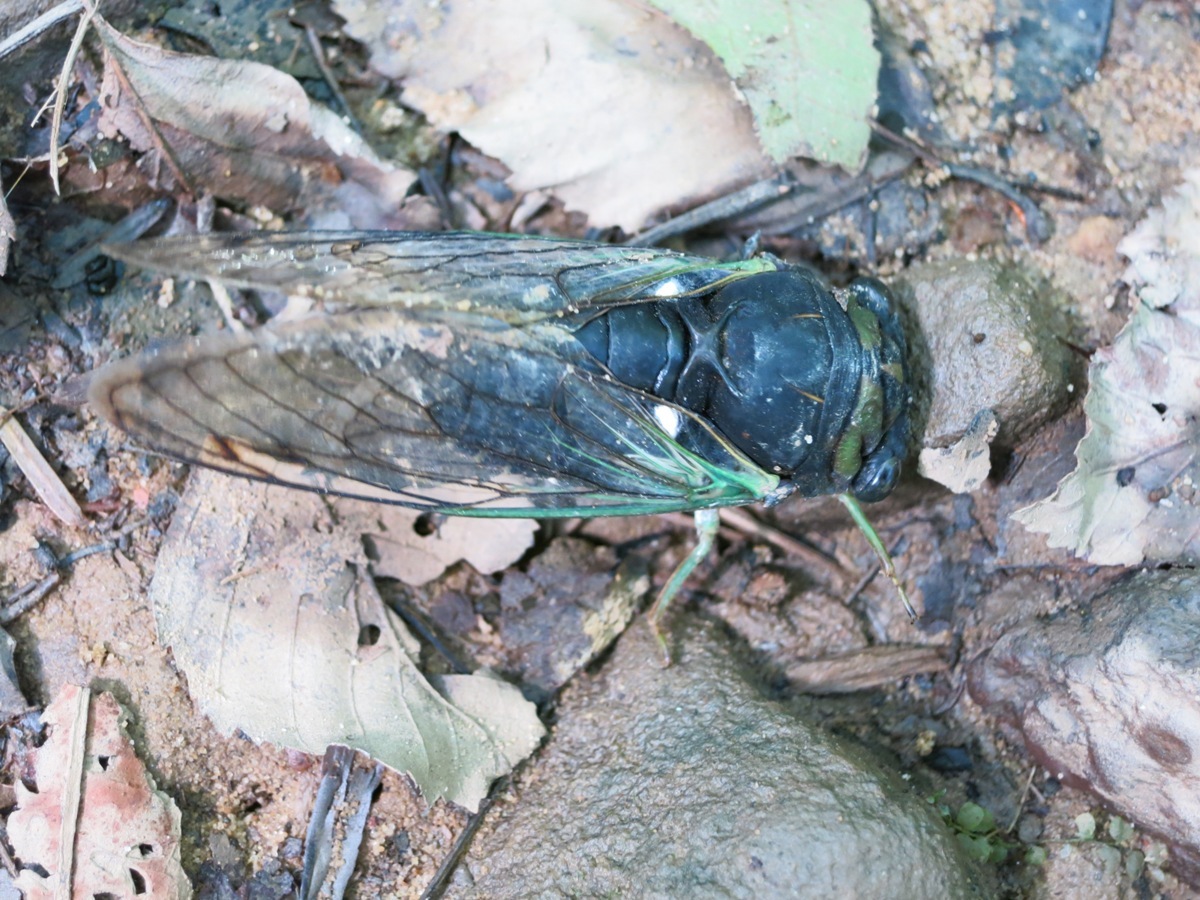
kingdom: Animalia
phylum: Arthropoda
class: Insecta
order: Hemiptera
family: Cicadidae
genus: Neotibicen
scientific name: Neotibicen tibicen
